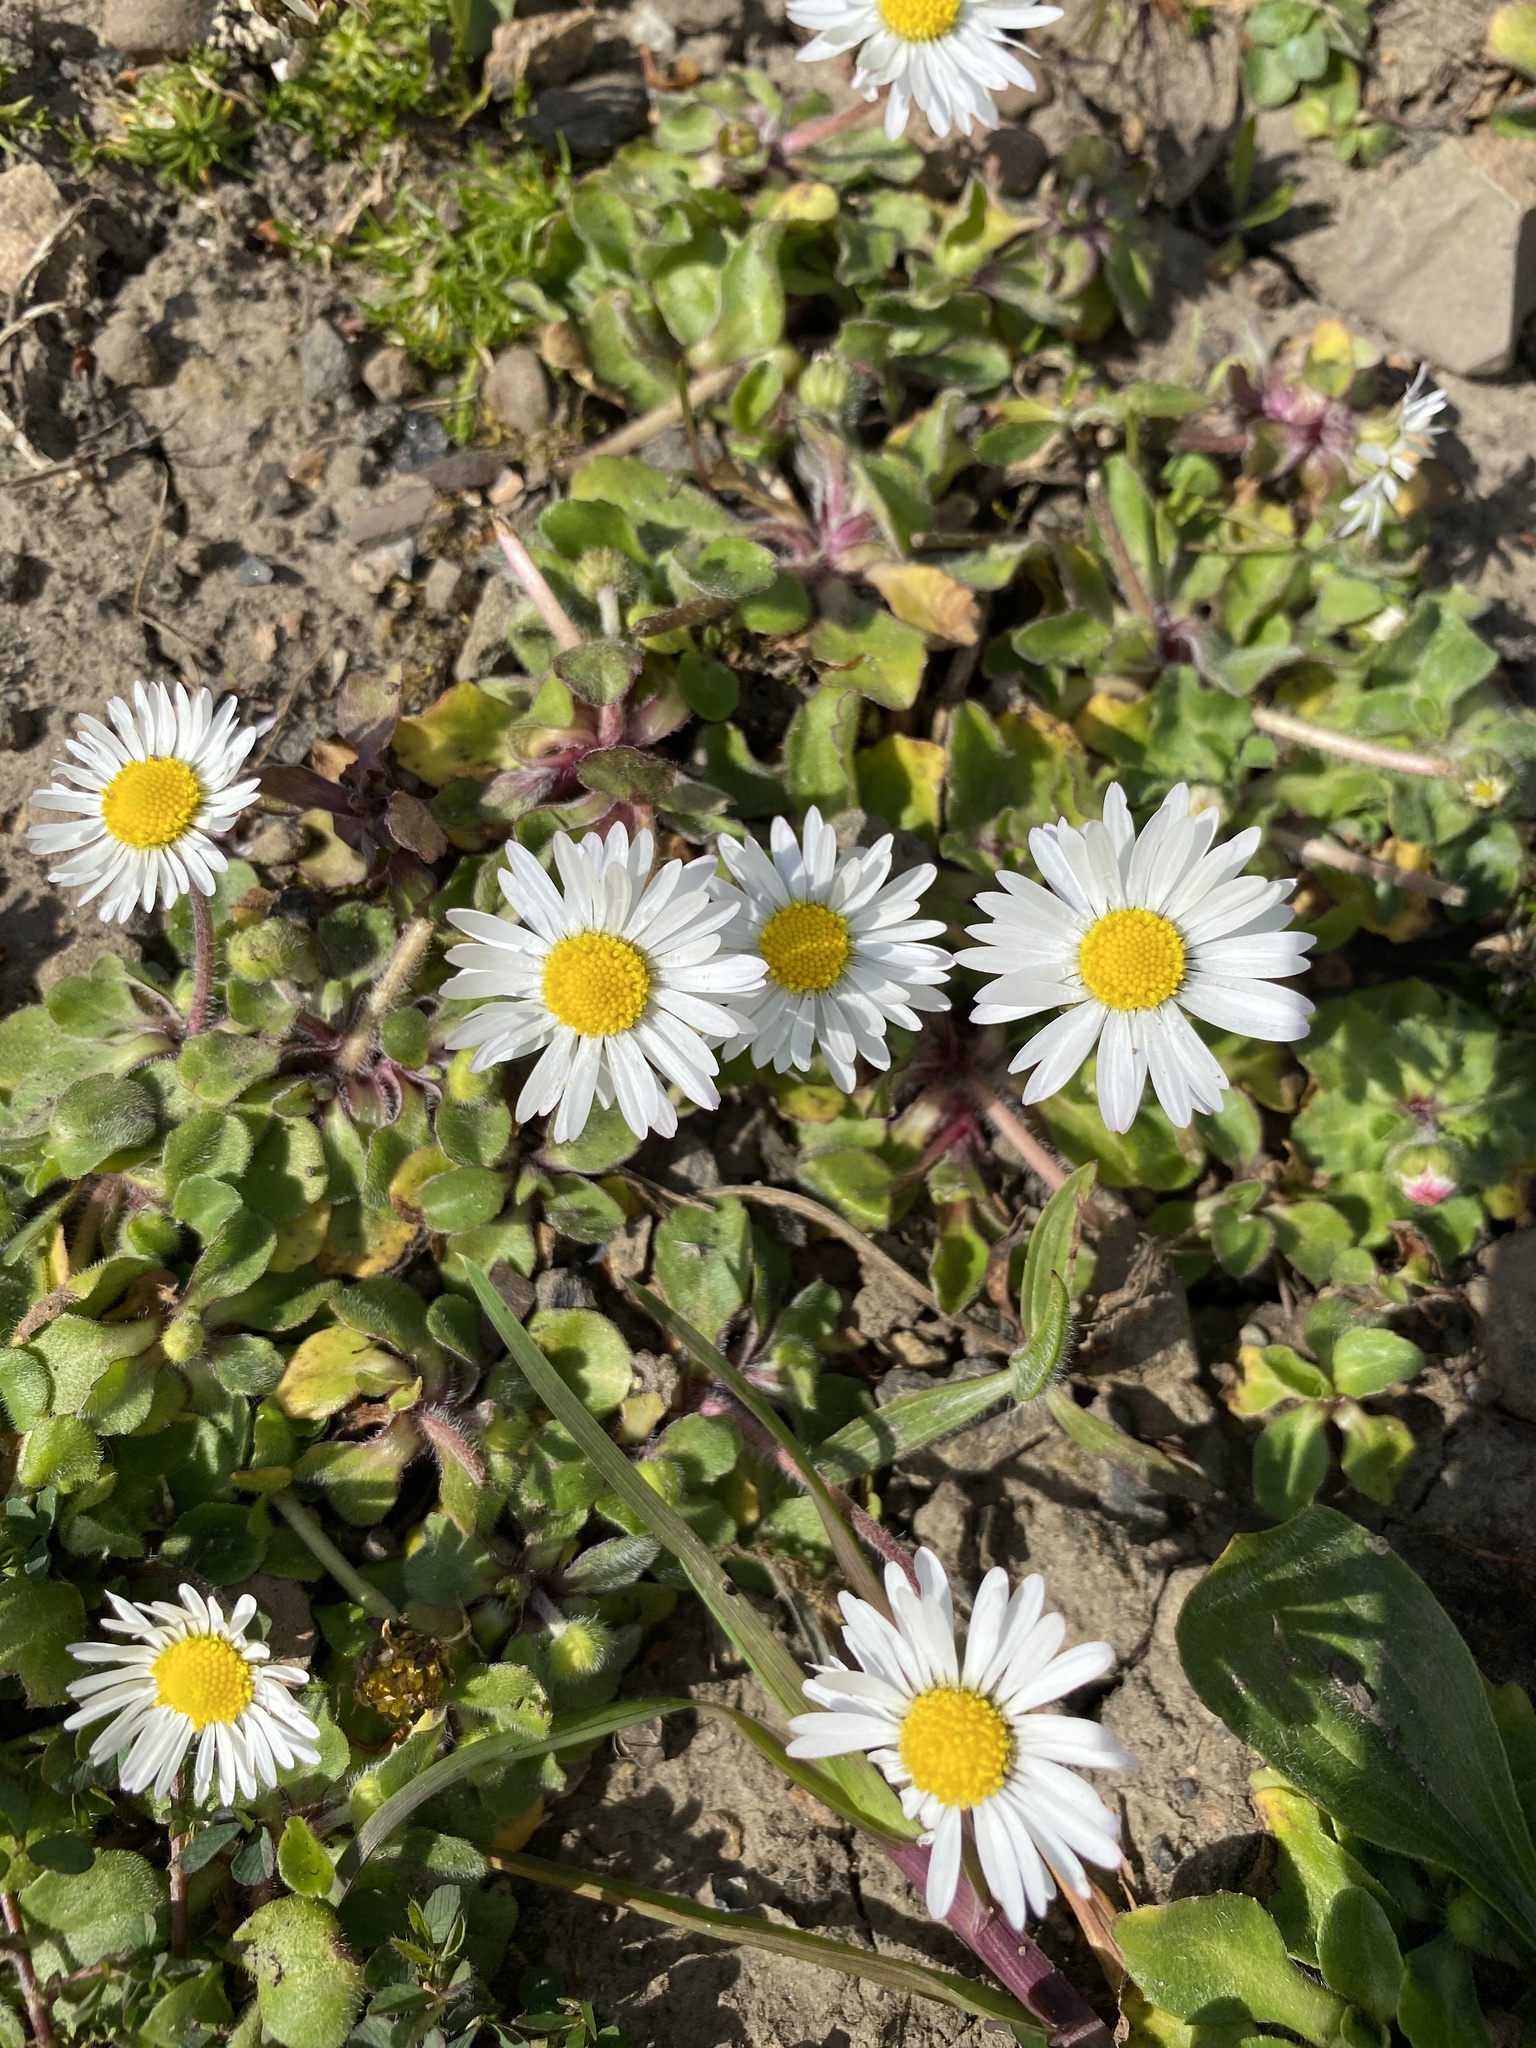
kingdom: Plantae
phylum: Tracheophyta
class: Magnoliopsida
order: Asterales
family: Asteraceae
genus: Bellis
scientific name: Bellis perennis
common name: Lawndaisy
